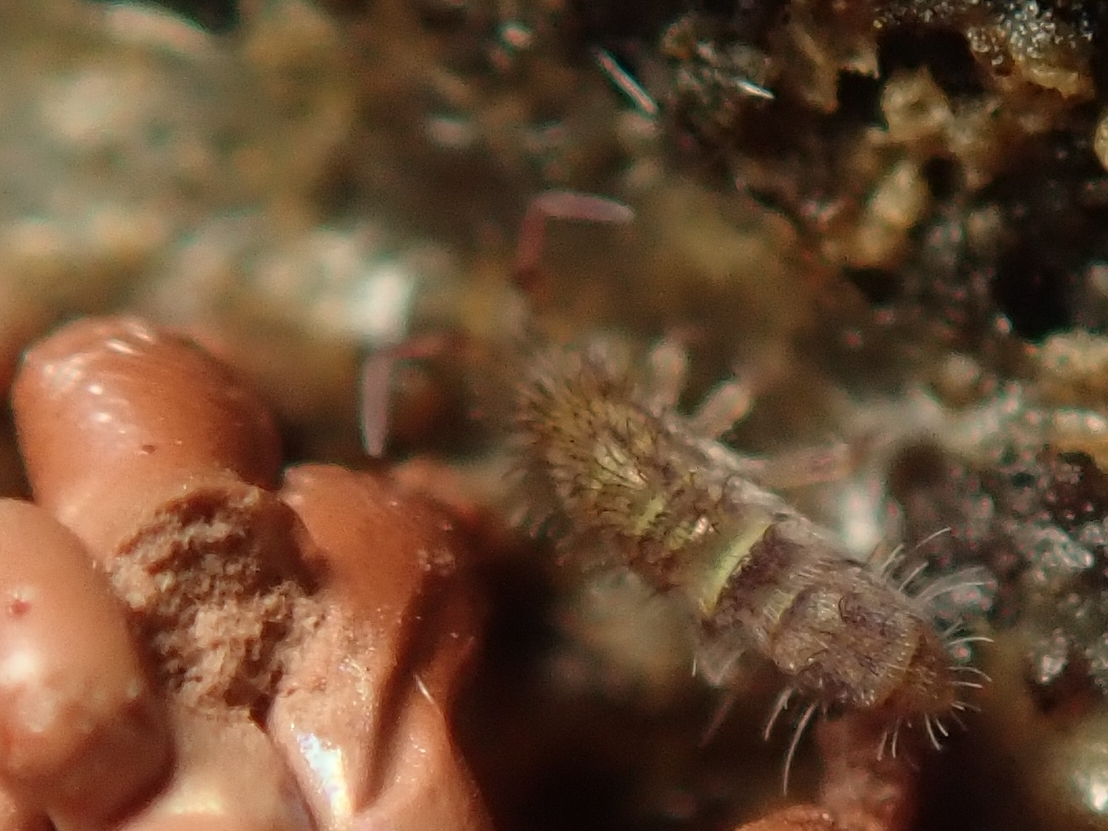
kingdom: Animalia
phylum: Arthropoda
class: Collembola
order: Entomobryomorpha
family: Orchesellidae
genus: Orchesella
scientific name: Orchesella cincta
